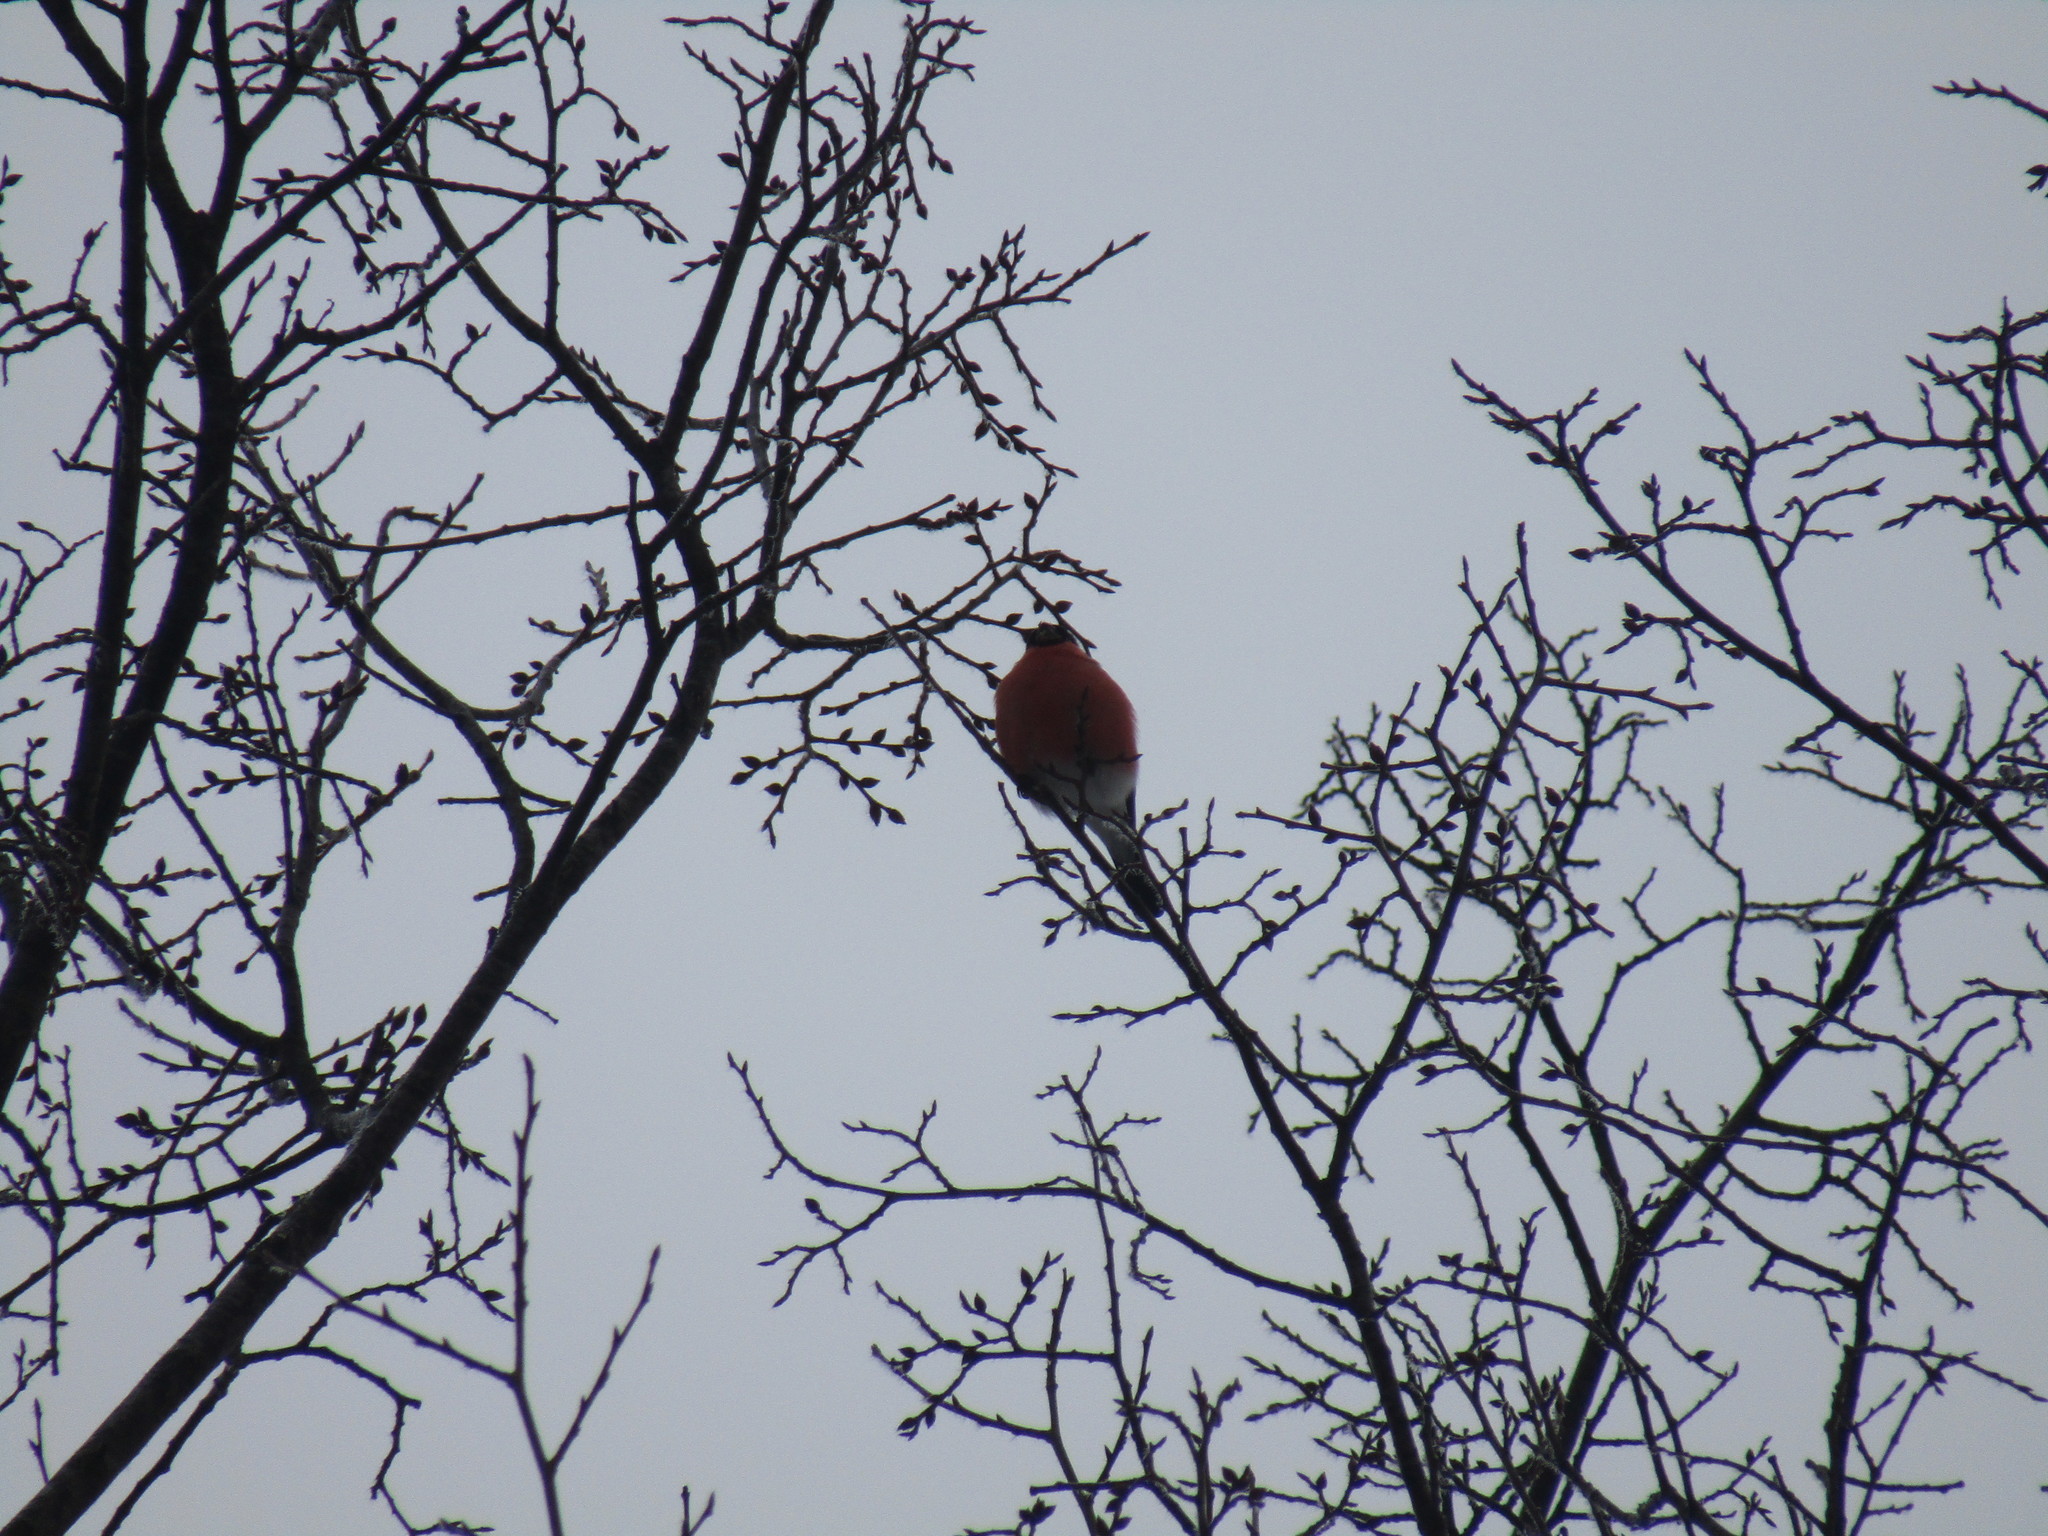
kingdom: Animalia
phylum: Chordata
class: Aves
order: Passeriformes
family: Fringillidae
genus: Pyrrhula
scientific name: Pyrrhula pyrrhula
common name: Eurasian bullfinch
